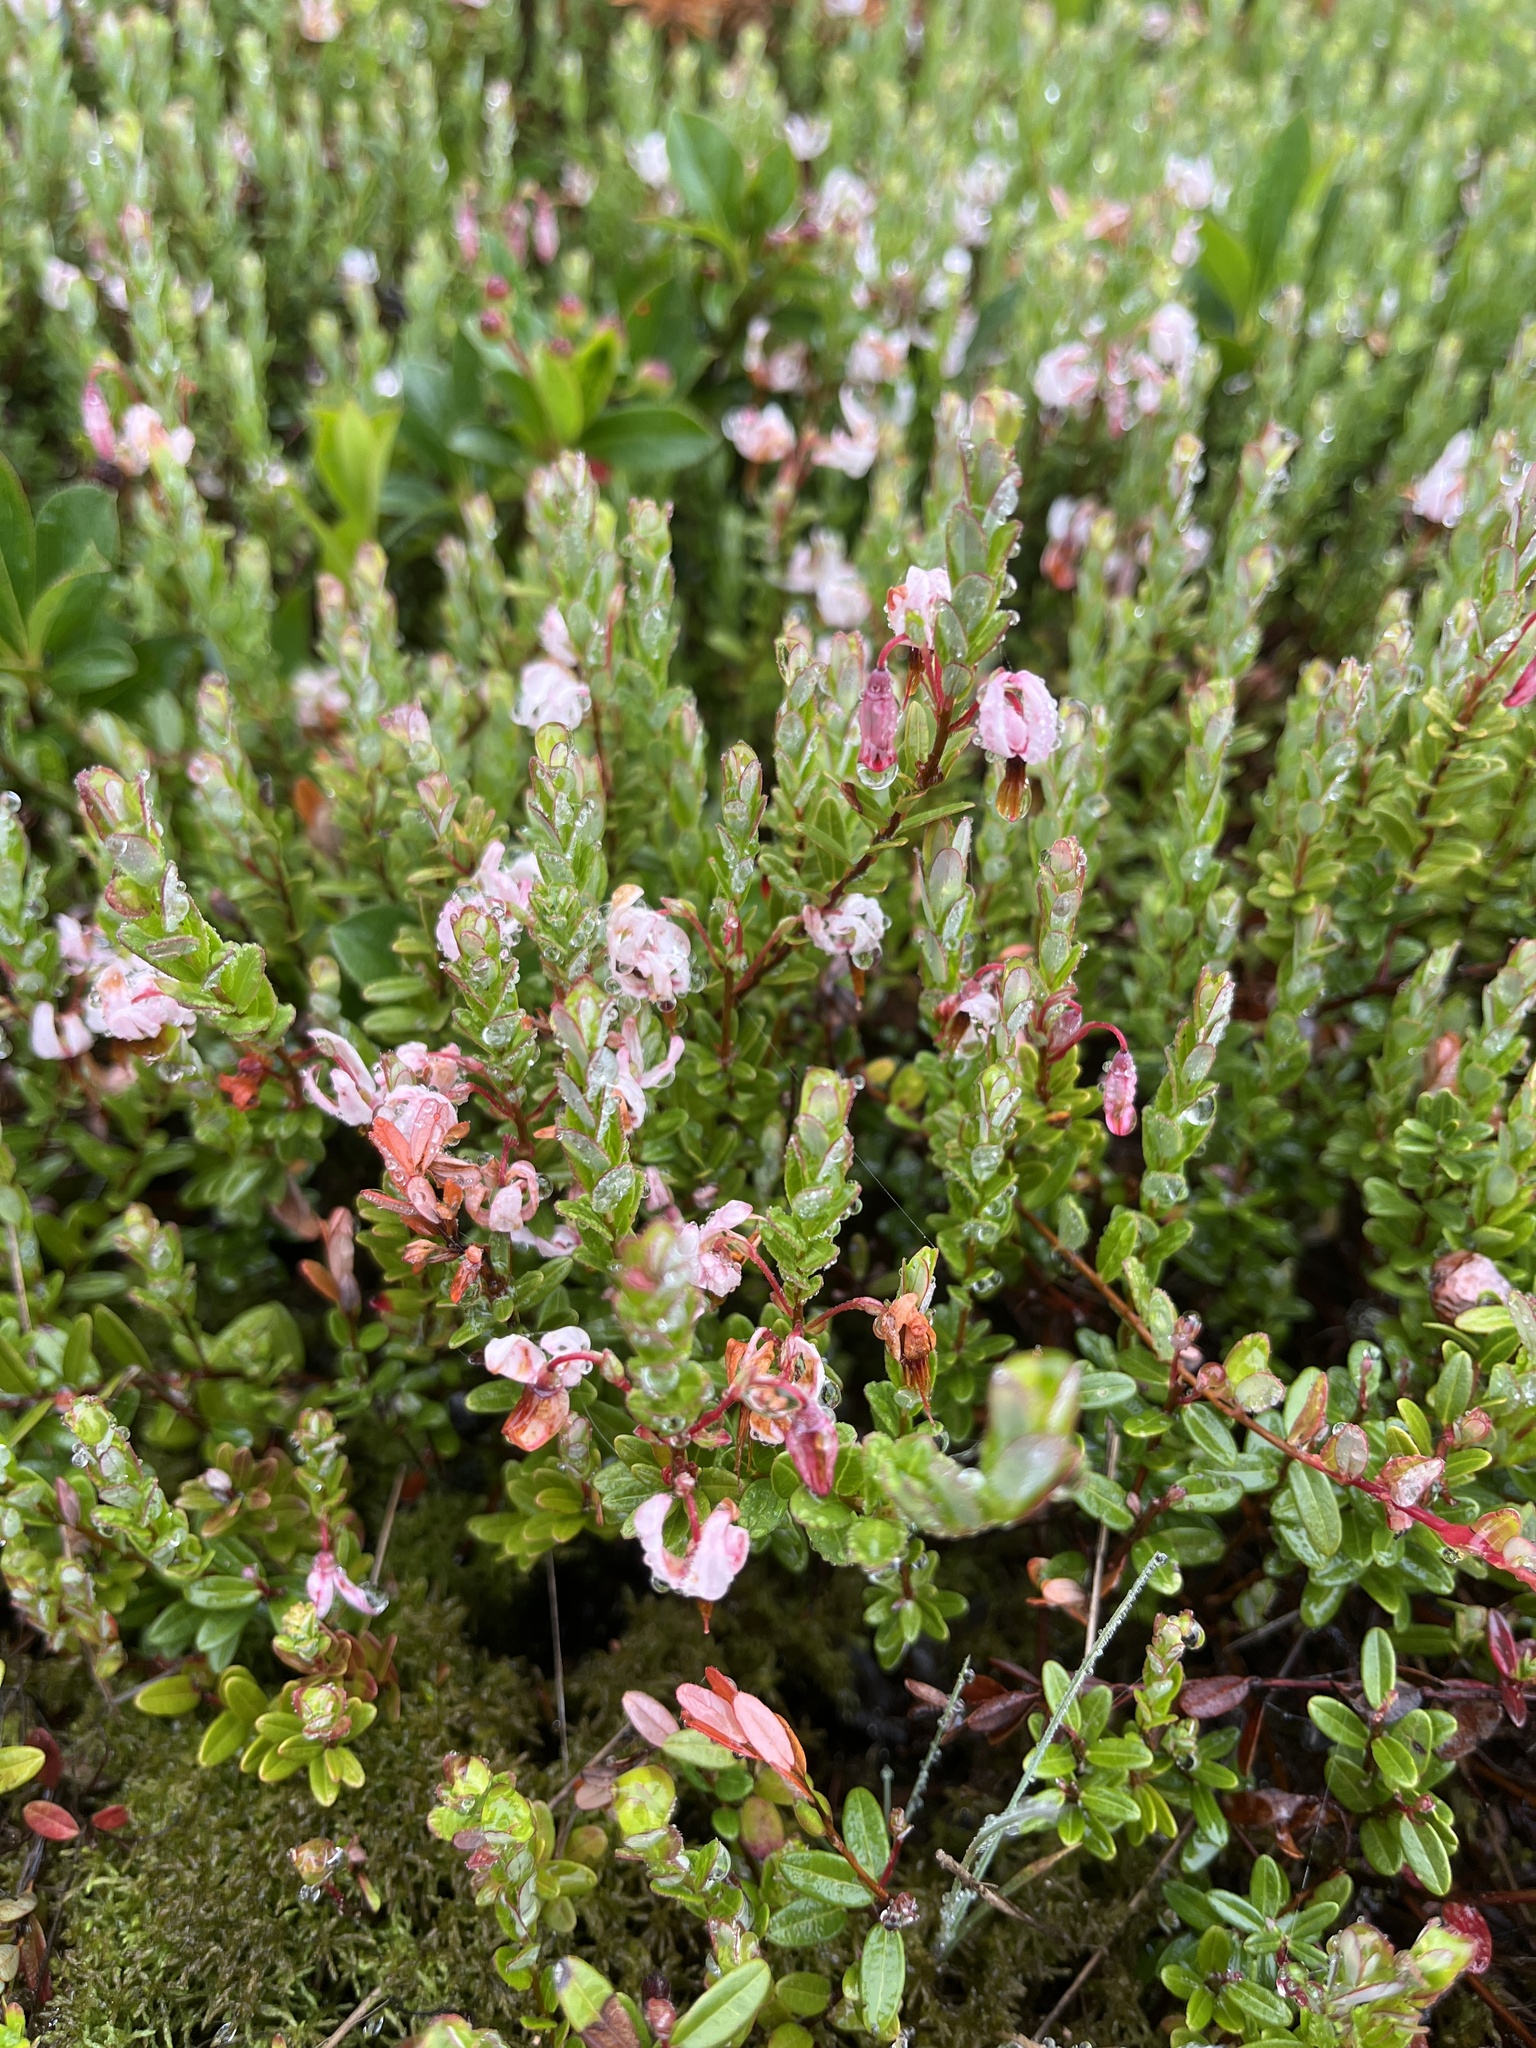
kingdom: Plantae
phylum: Tracheophyta
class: Magnoliopsida
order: Ericales
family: Ericaceae
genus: Vaccinium
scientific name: Vaccinium macrocarpon
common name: American cranberry
